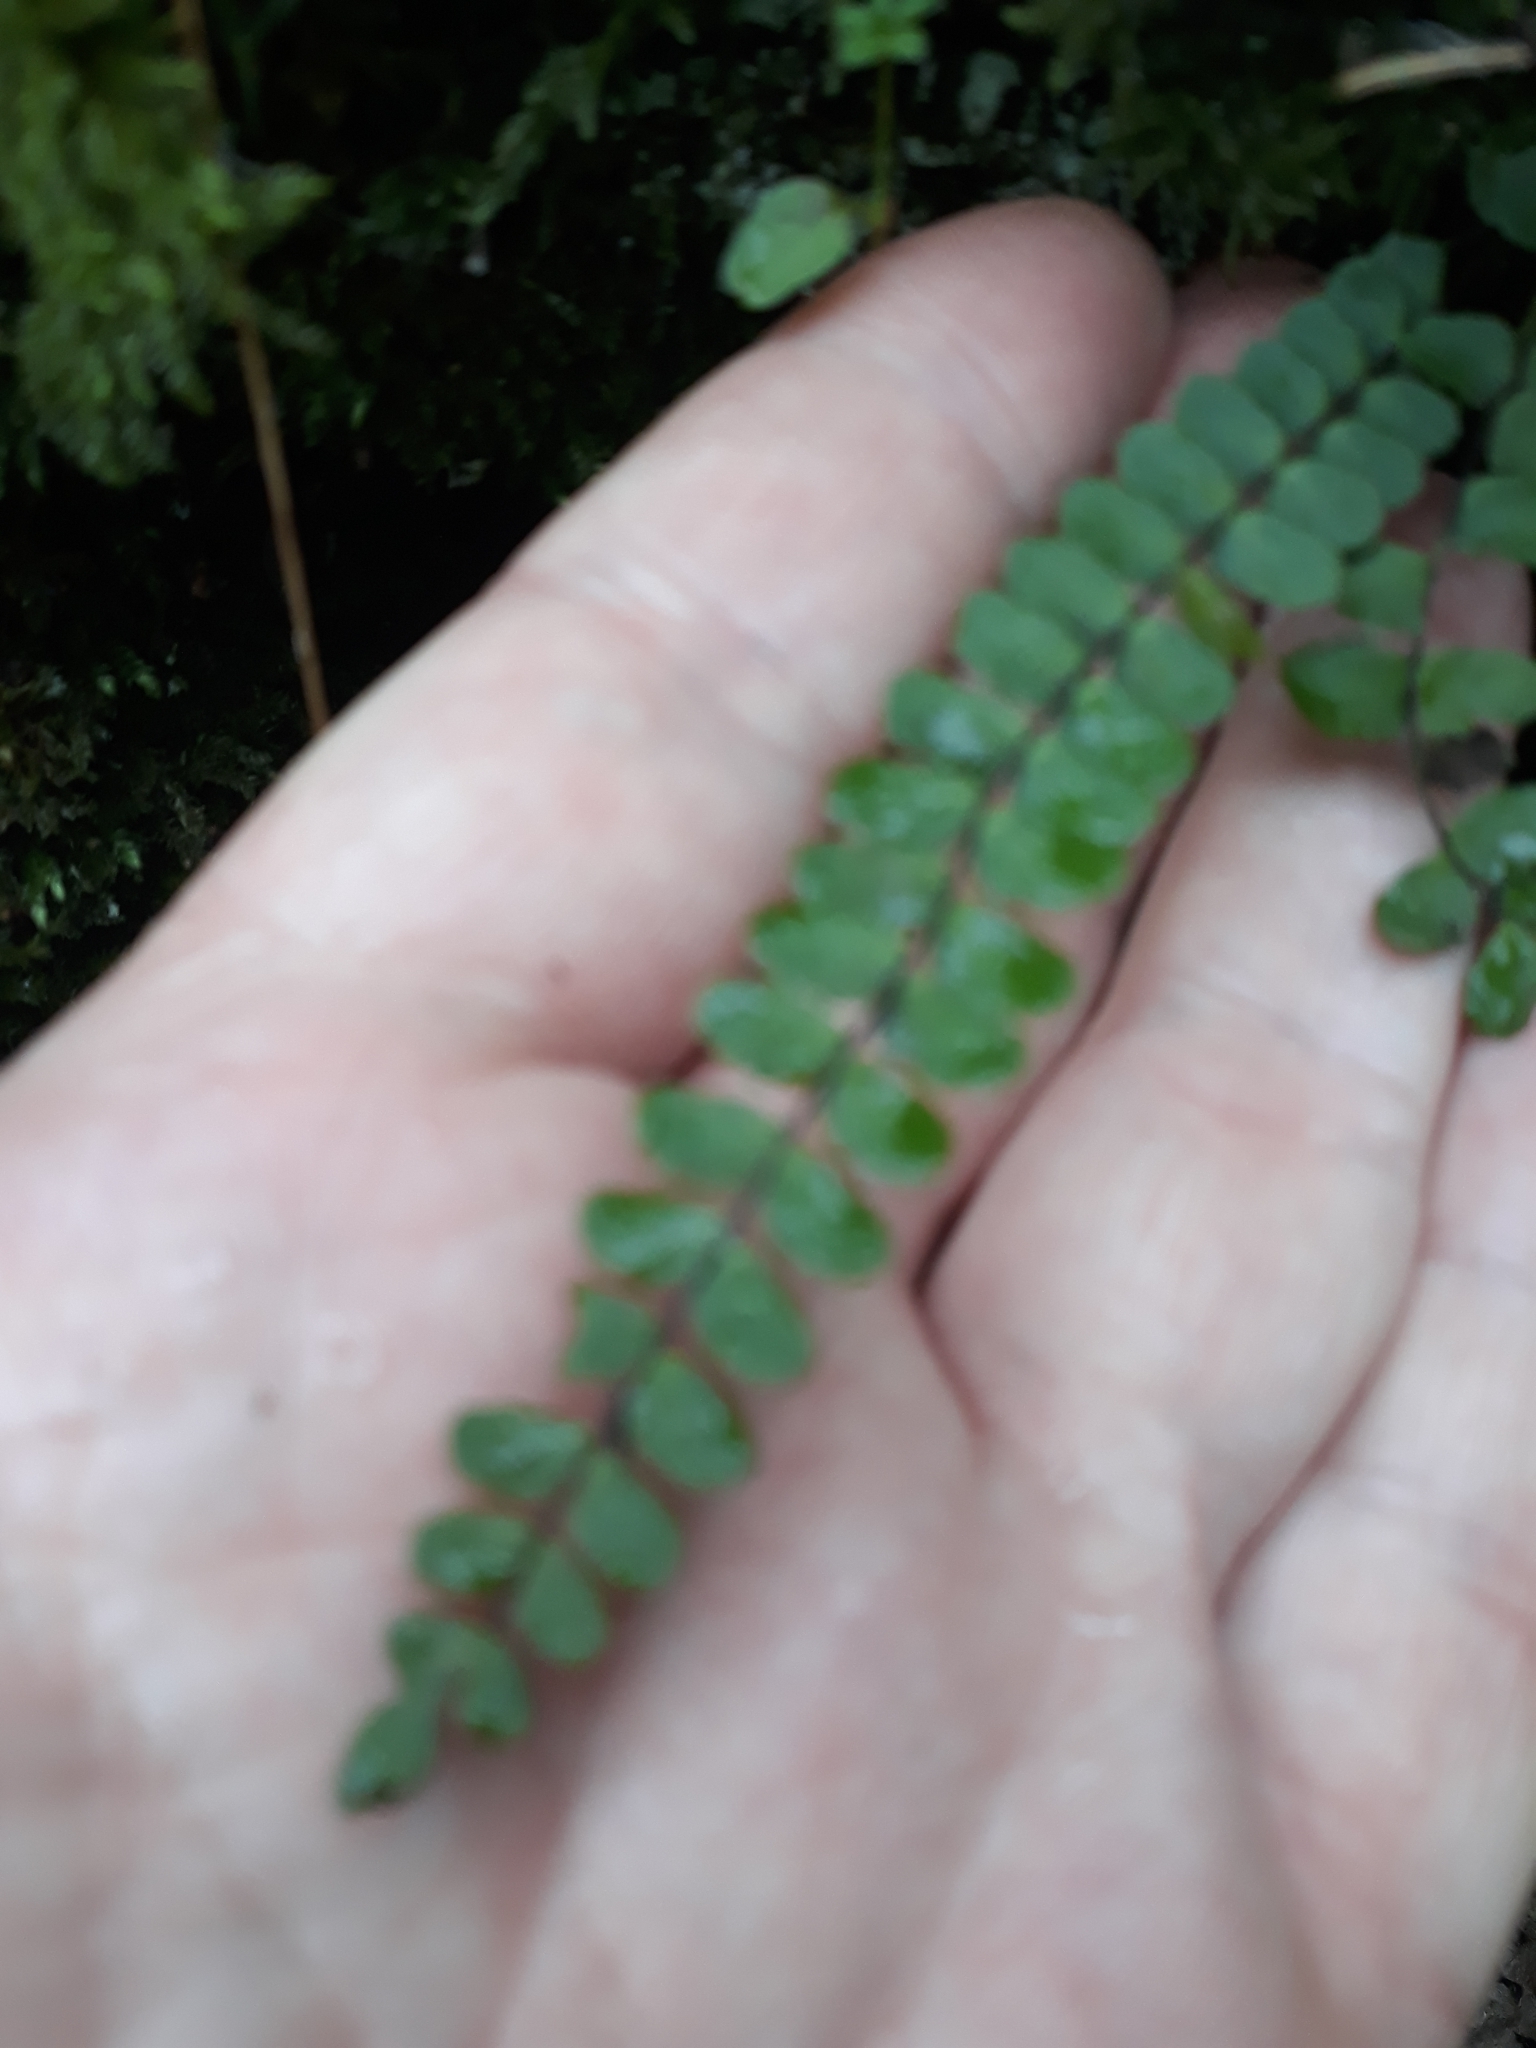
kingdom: Plantae
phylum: Tracheophyta
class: Polypodiopsida
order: Polypodiales
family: Aspleniaceae
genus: Asplenium
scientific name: Asplenium trichomanes
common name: Maidenhair spleenwort
